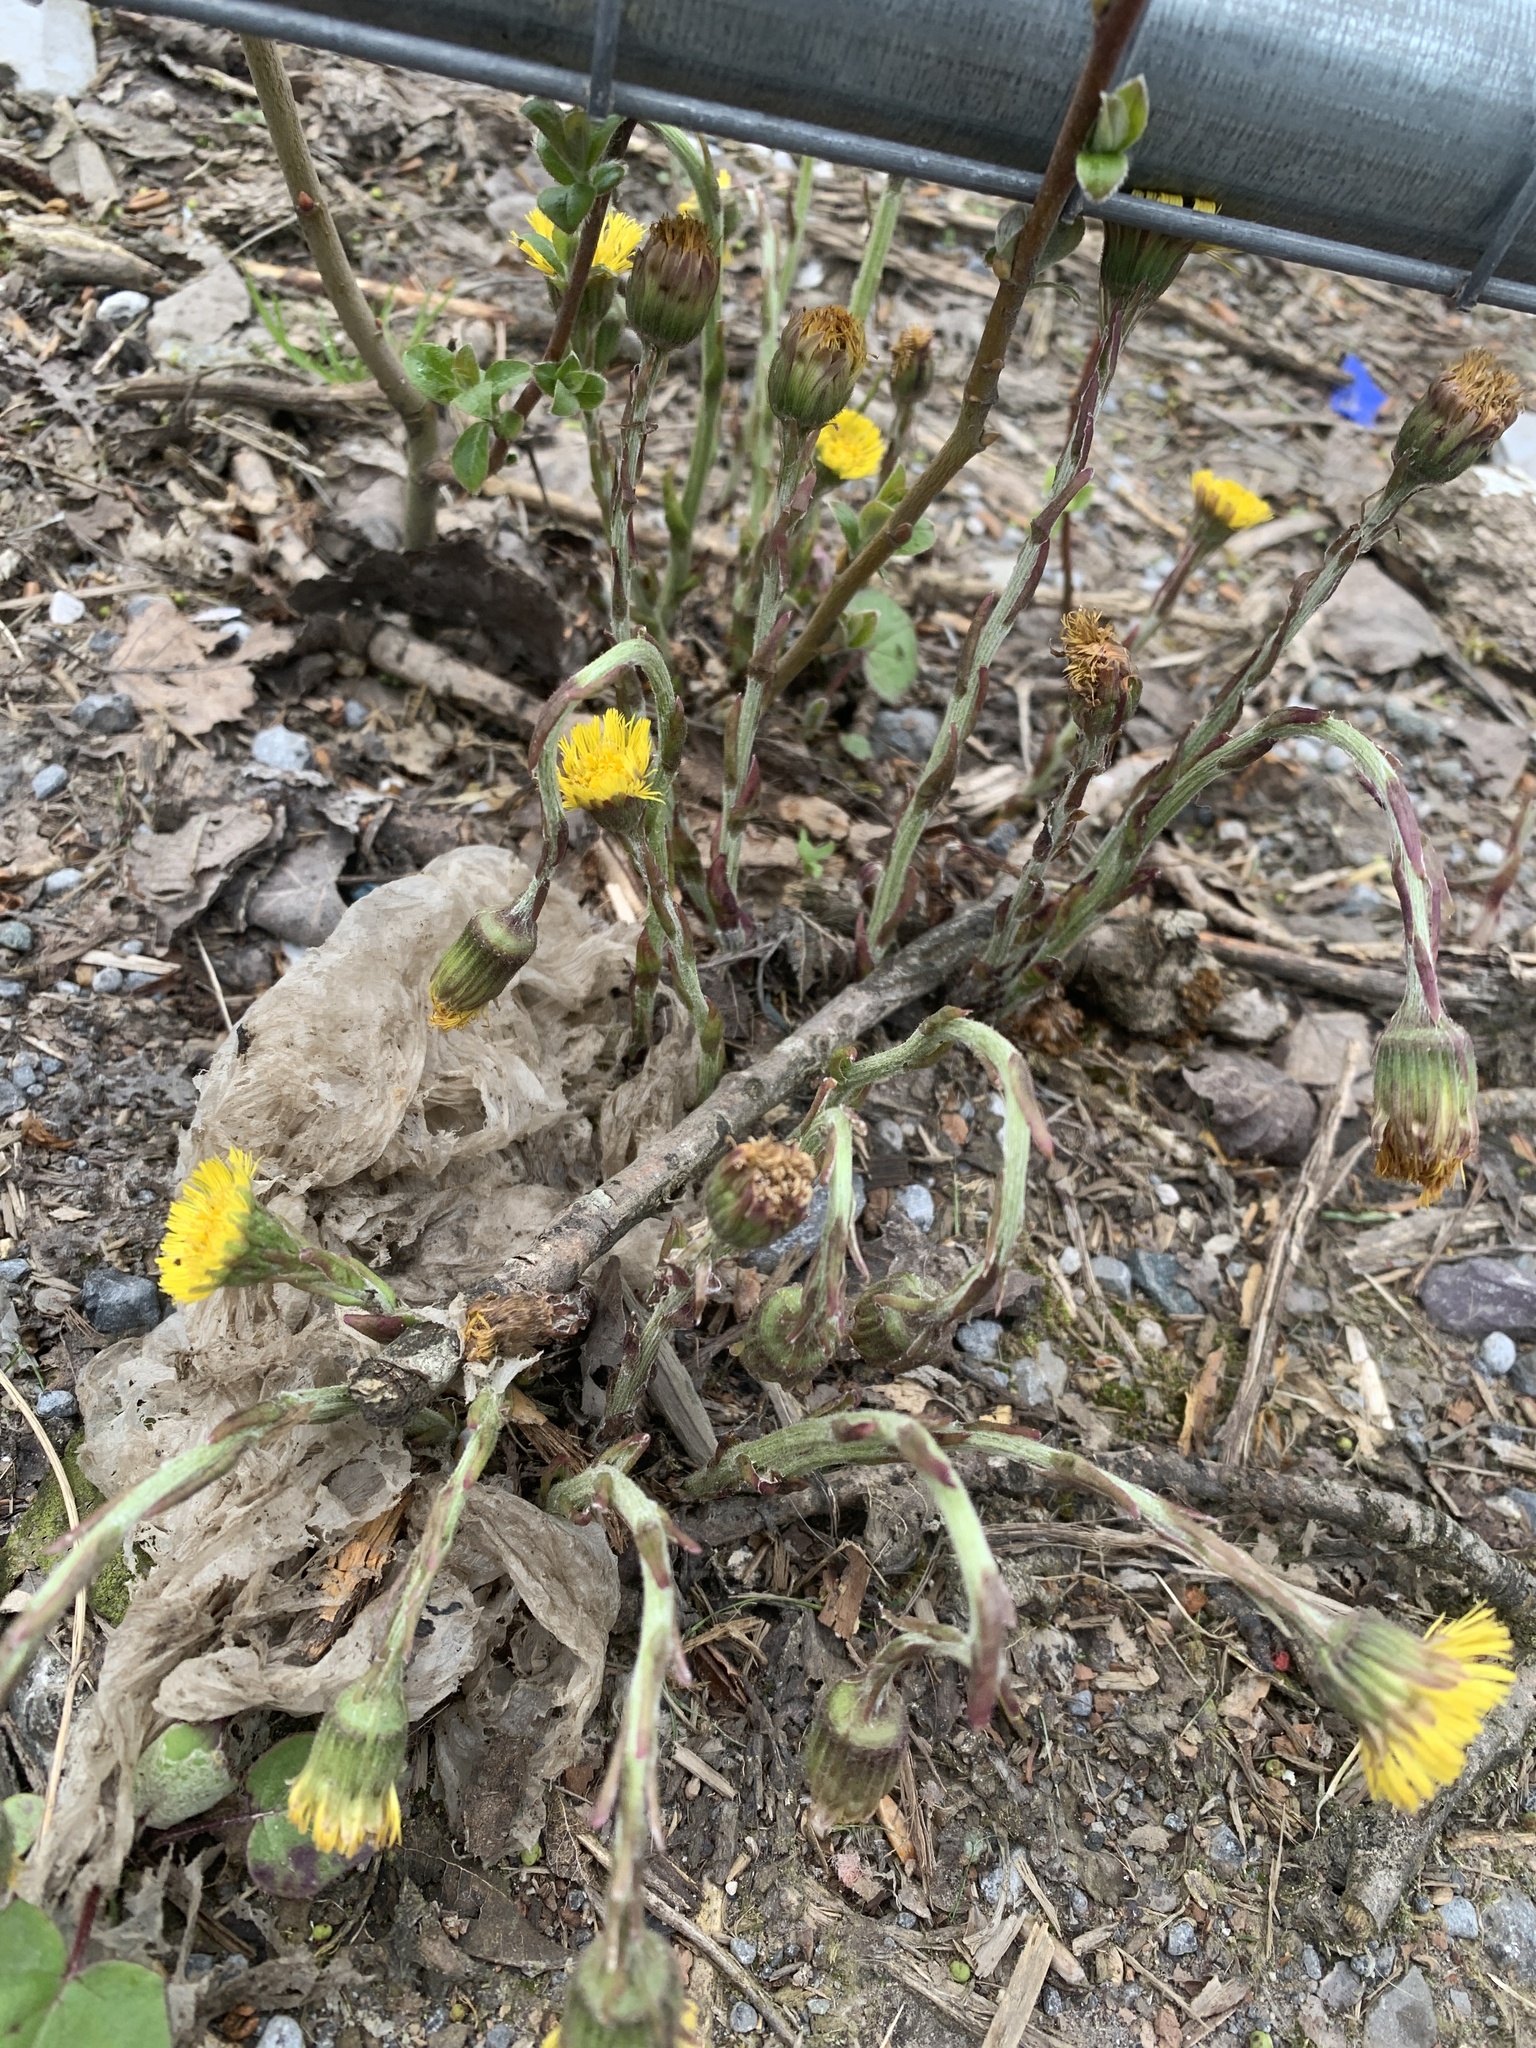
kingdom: Plantae
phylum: Tracheophyta
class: Magnoliopsida
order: Asterales
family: Asteraceae
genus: Tussilago
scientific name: Tussilago farfara
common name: Coltsfoot
